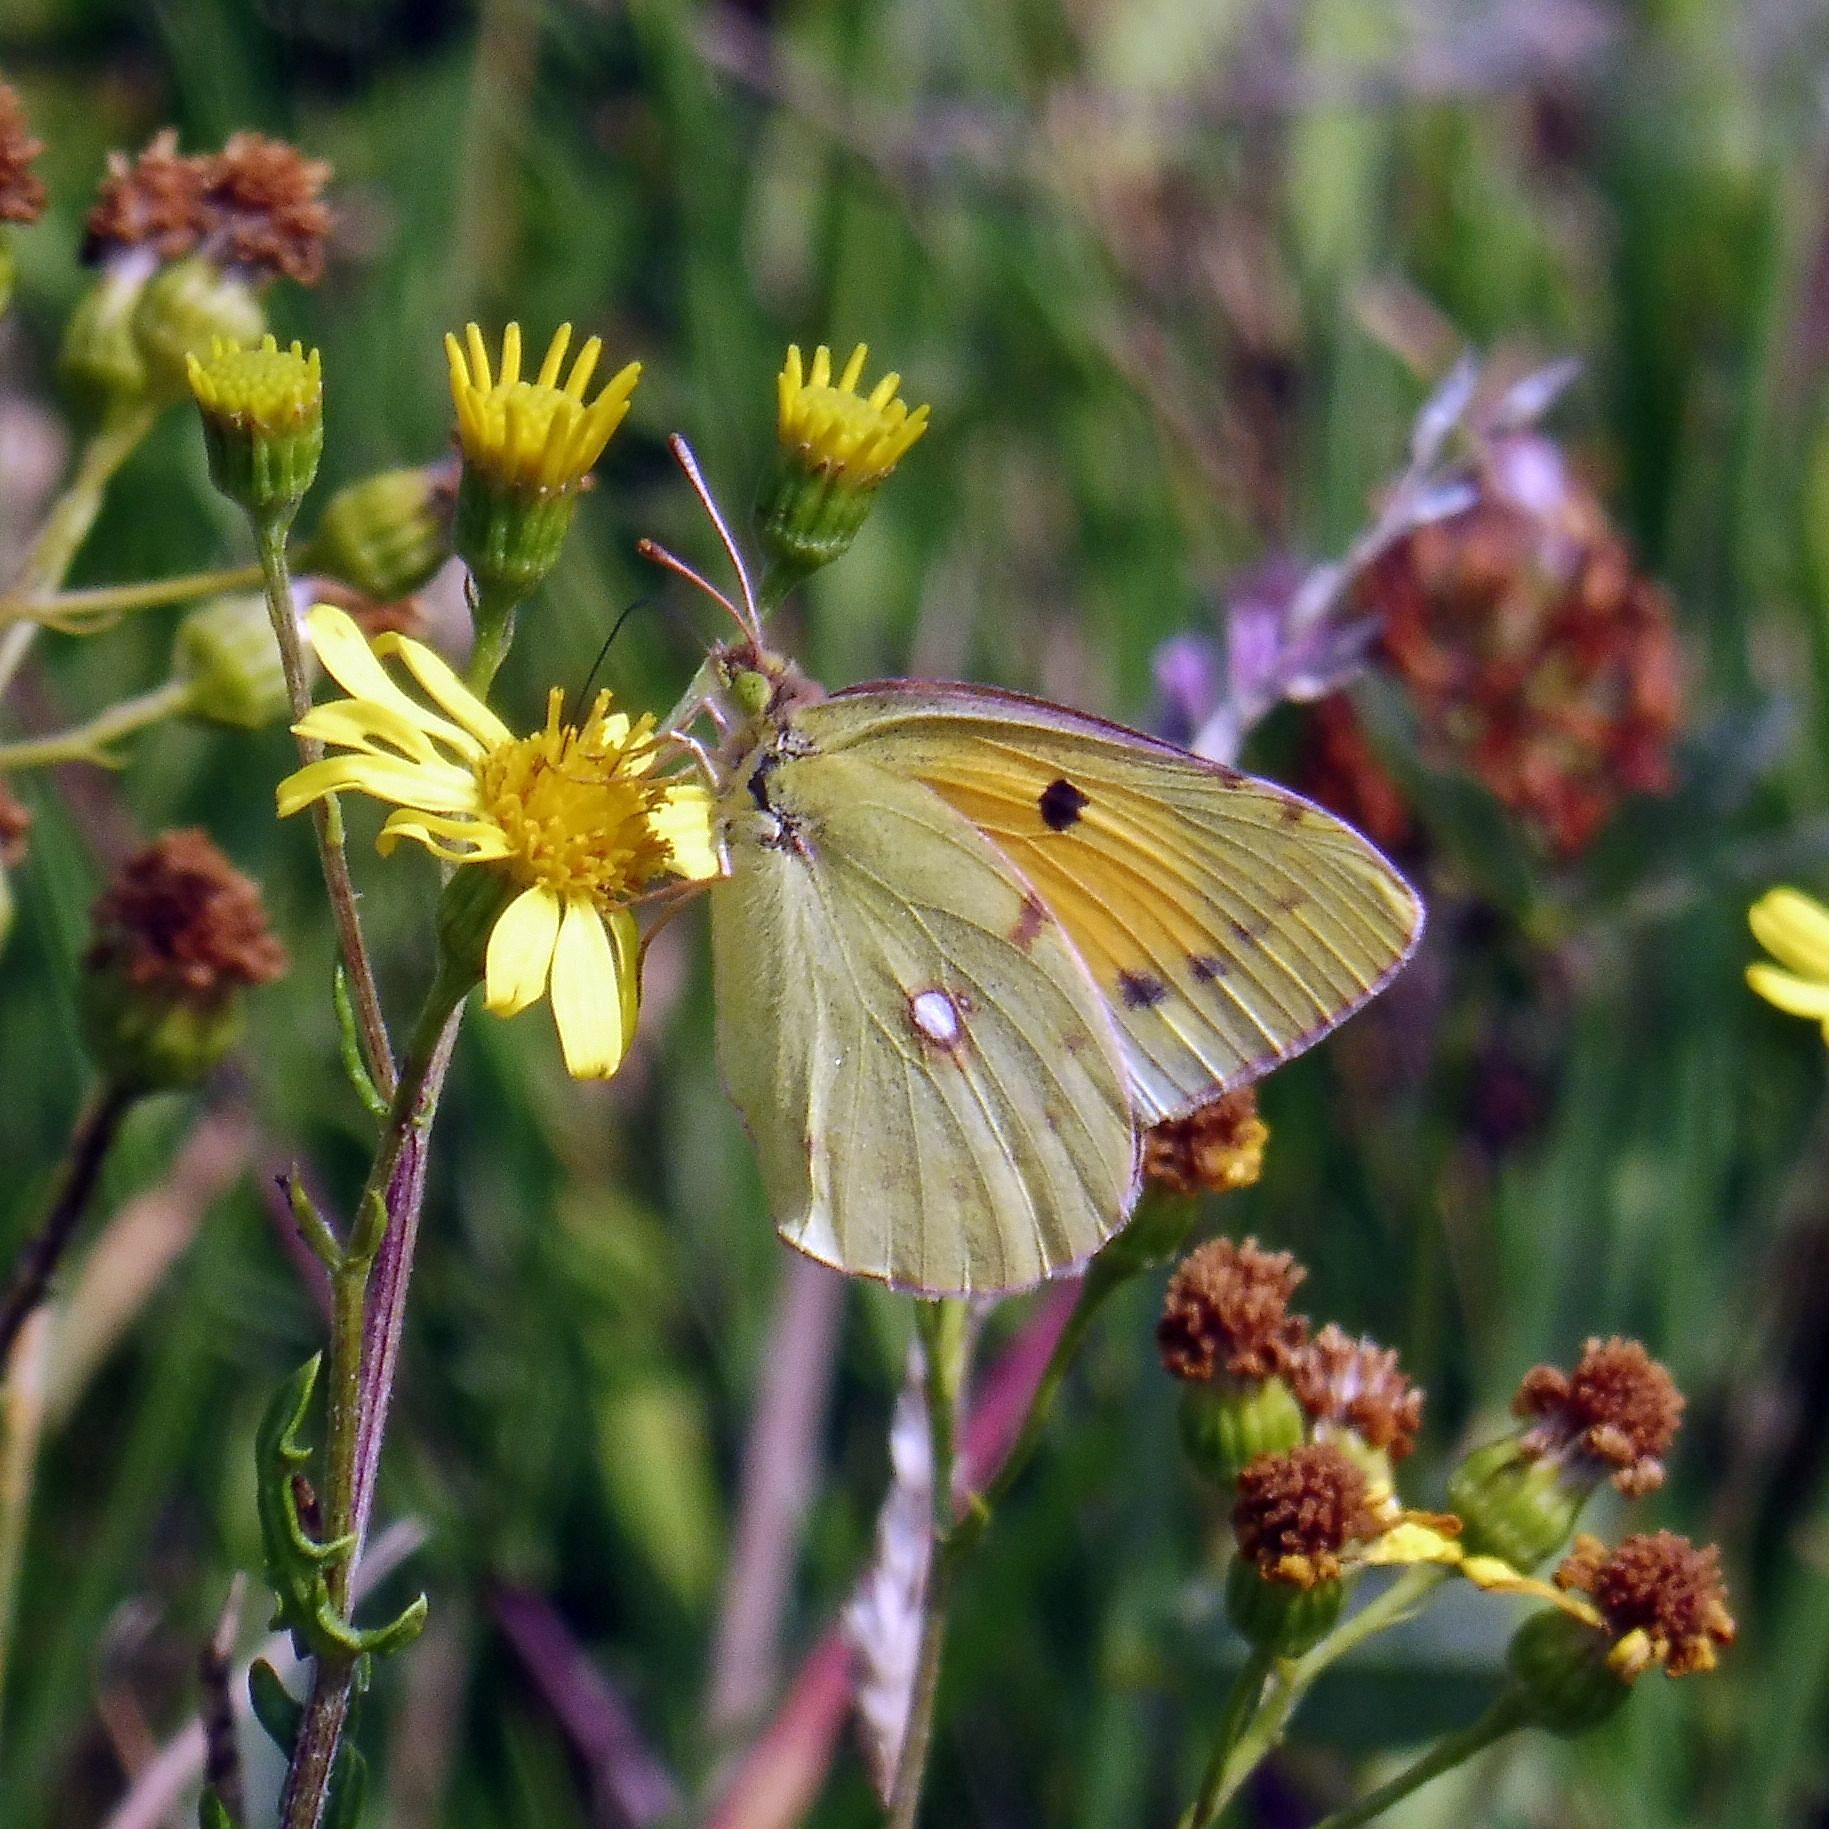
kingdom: Animalia
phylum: Arthropoda
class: Insecta
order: Lepidoptera
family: Pieridae
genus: Colias
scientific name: Colias croceus
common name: Clouded yellow
